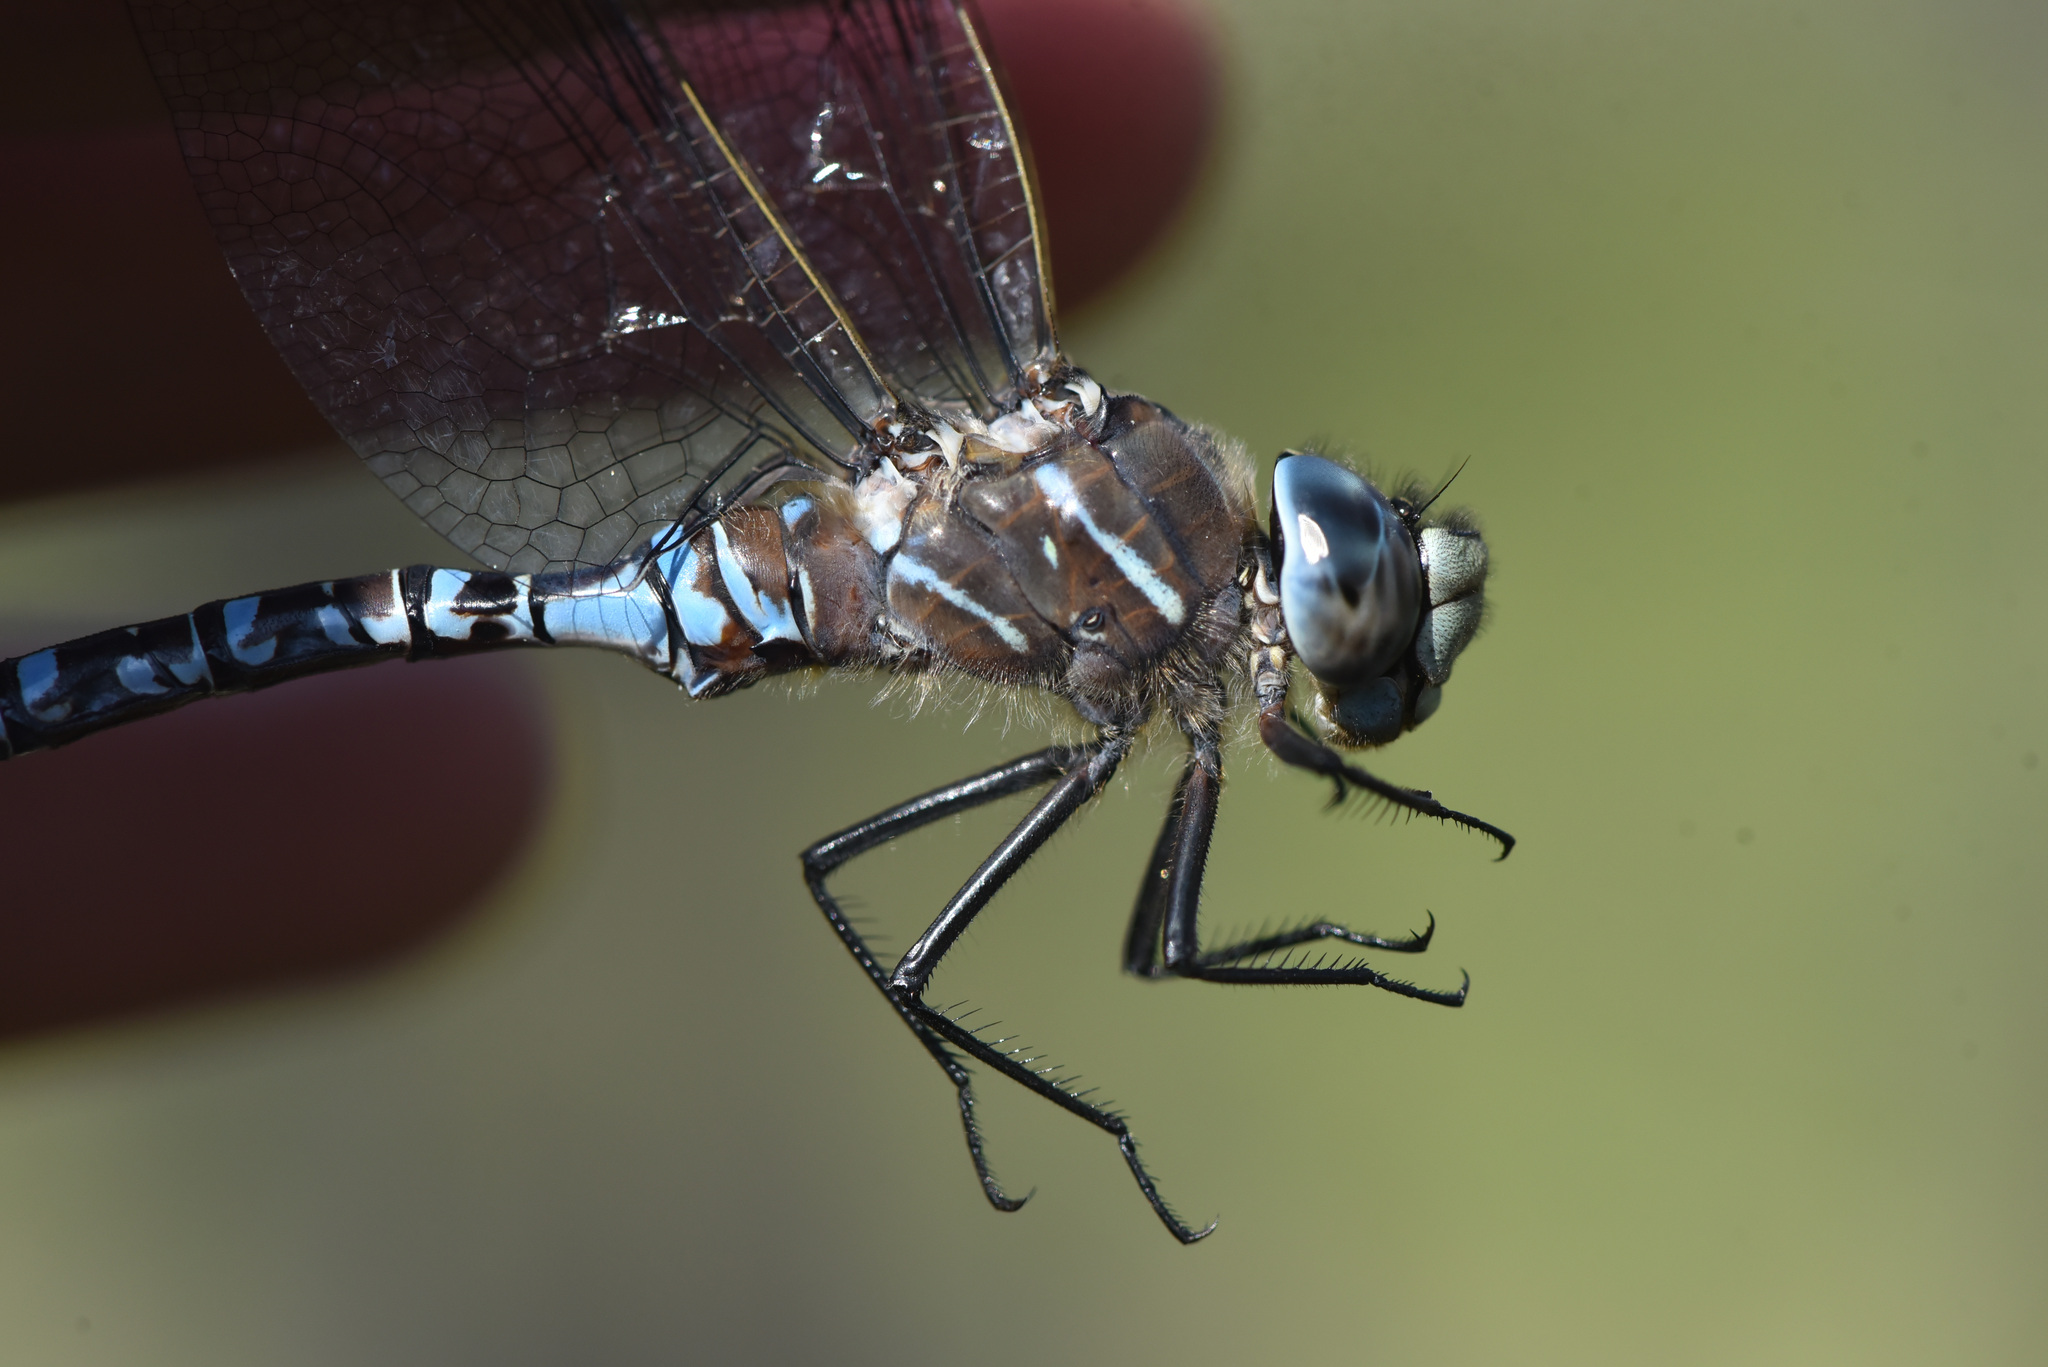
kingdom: Animalia
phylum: Arthropoda
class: Insecta
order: Odonata
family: Aeshnidae
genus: Aeshna
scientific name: Aeshna interrupta
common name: Variable darner
